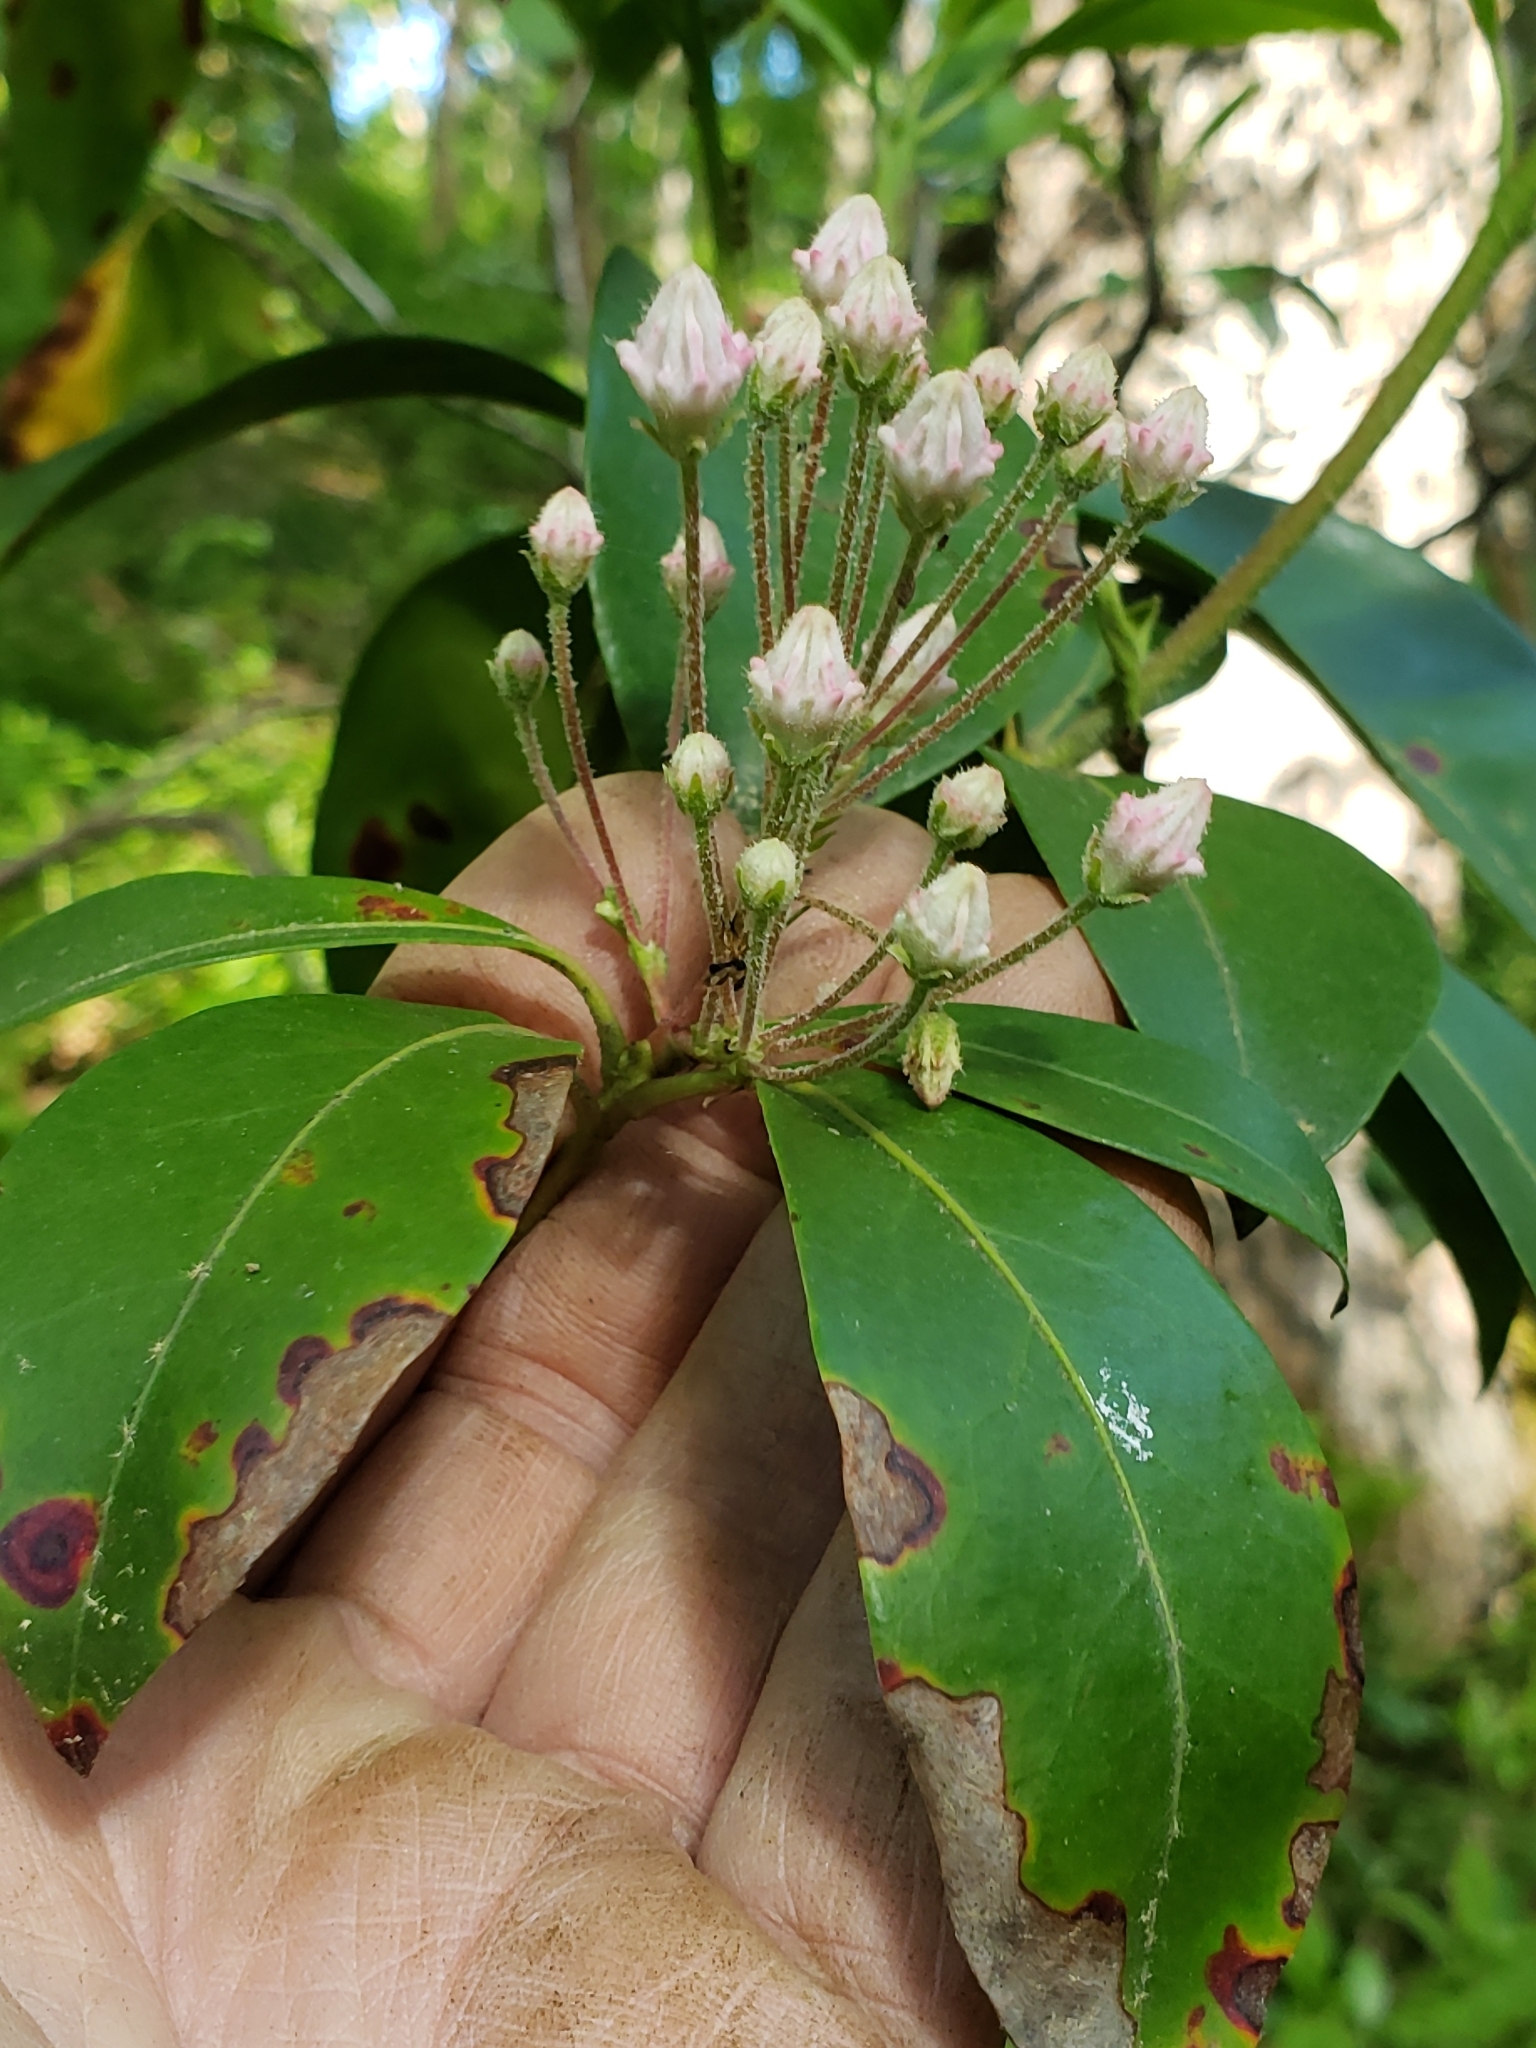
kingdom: Plantae
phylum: Tracheophyta
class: Magnoliopsida
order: Ericales
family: Ericaceae
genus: Kalmia
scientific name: Kalmia latifolia
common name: Mountain-laurel
